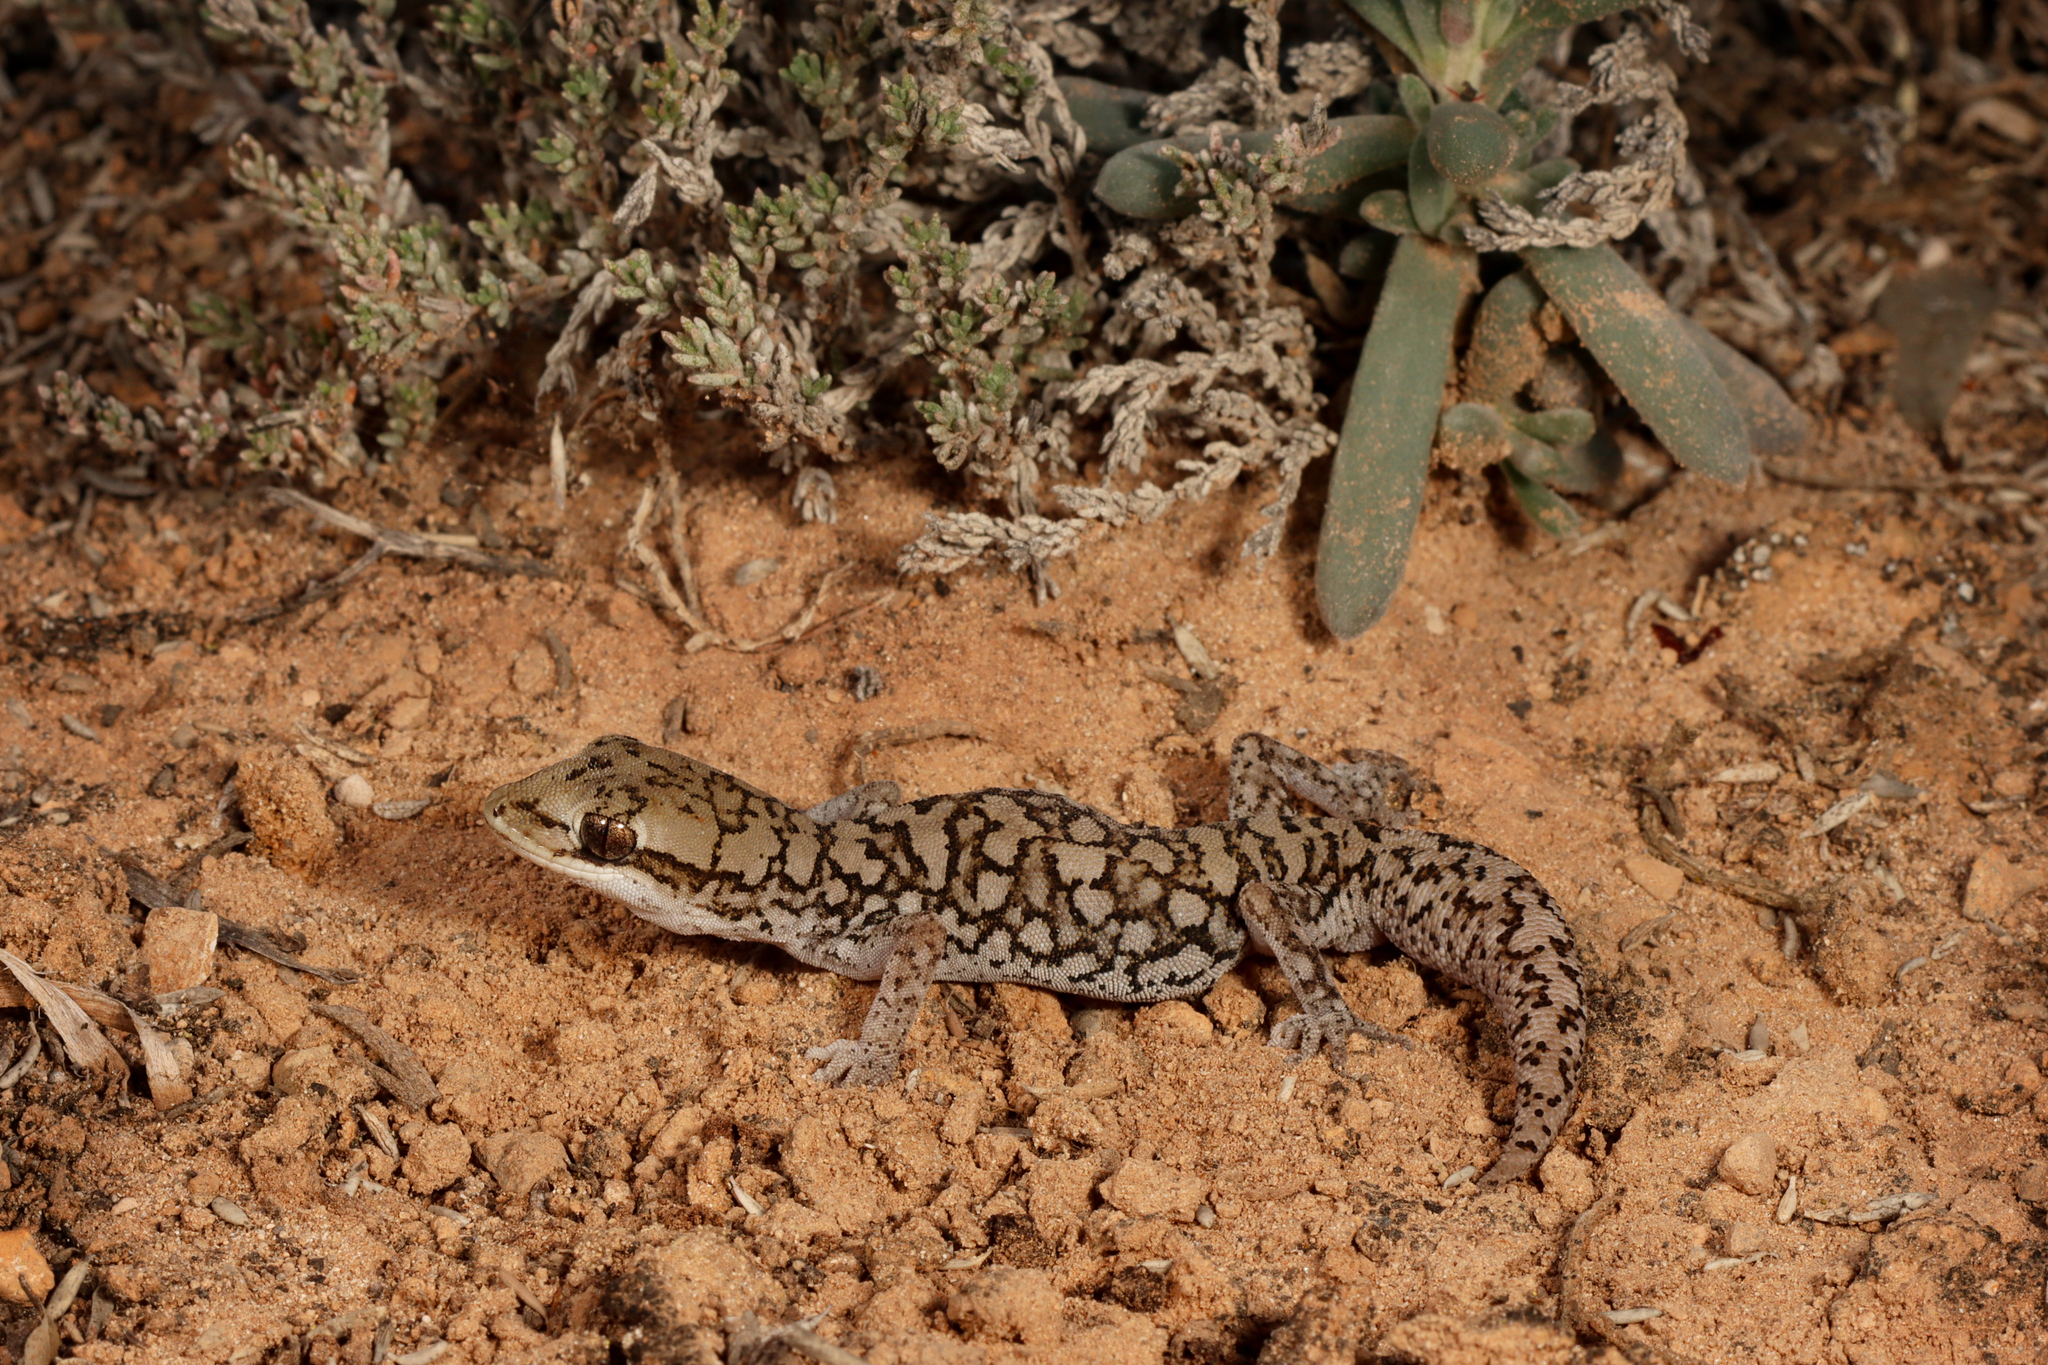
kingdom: Animalia
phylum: Chordata
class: Squamata
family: Diplodactylidae
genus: Diplodactylus
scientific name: Diplodactylus calcicolus
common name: South coast gecko
